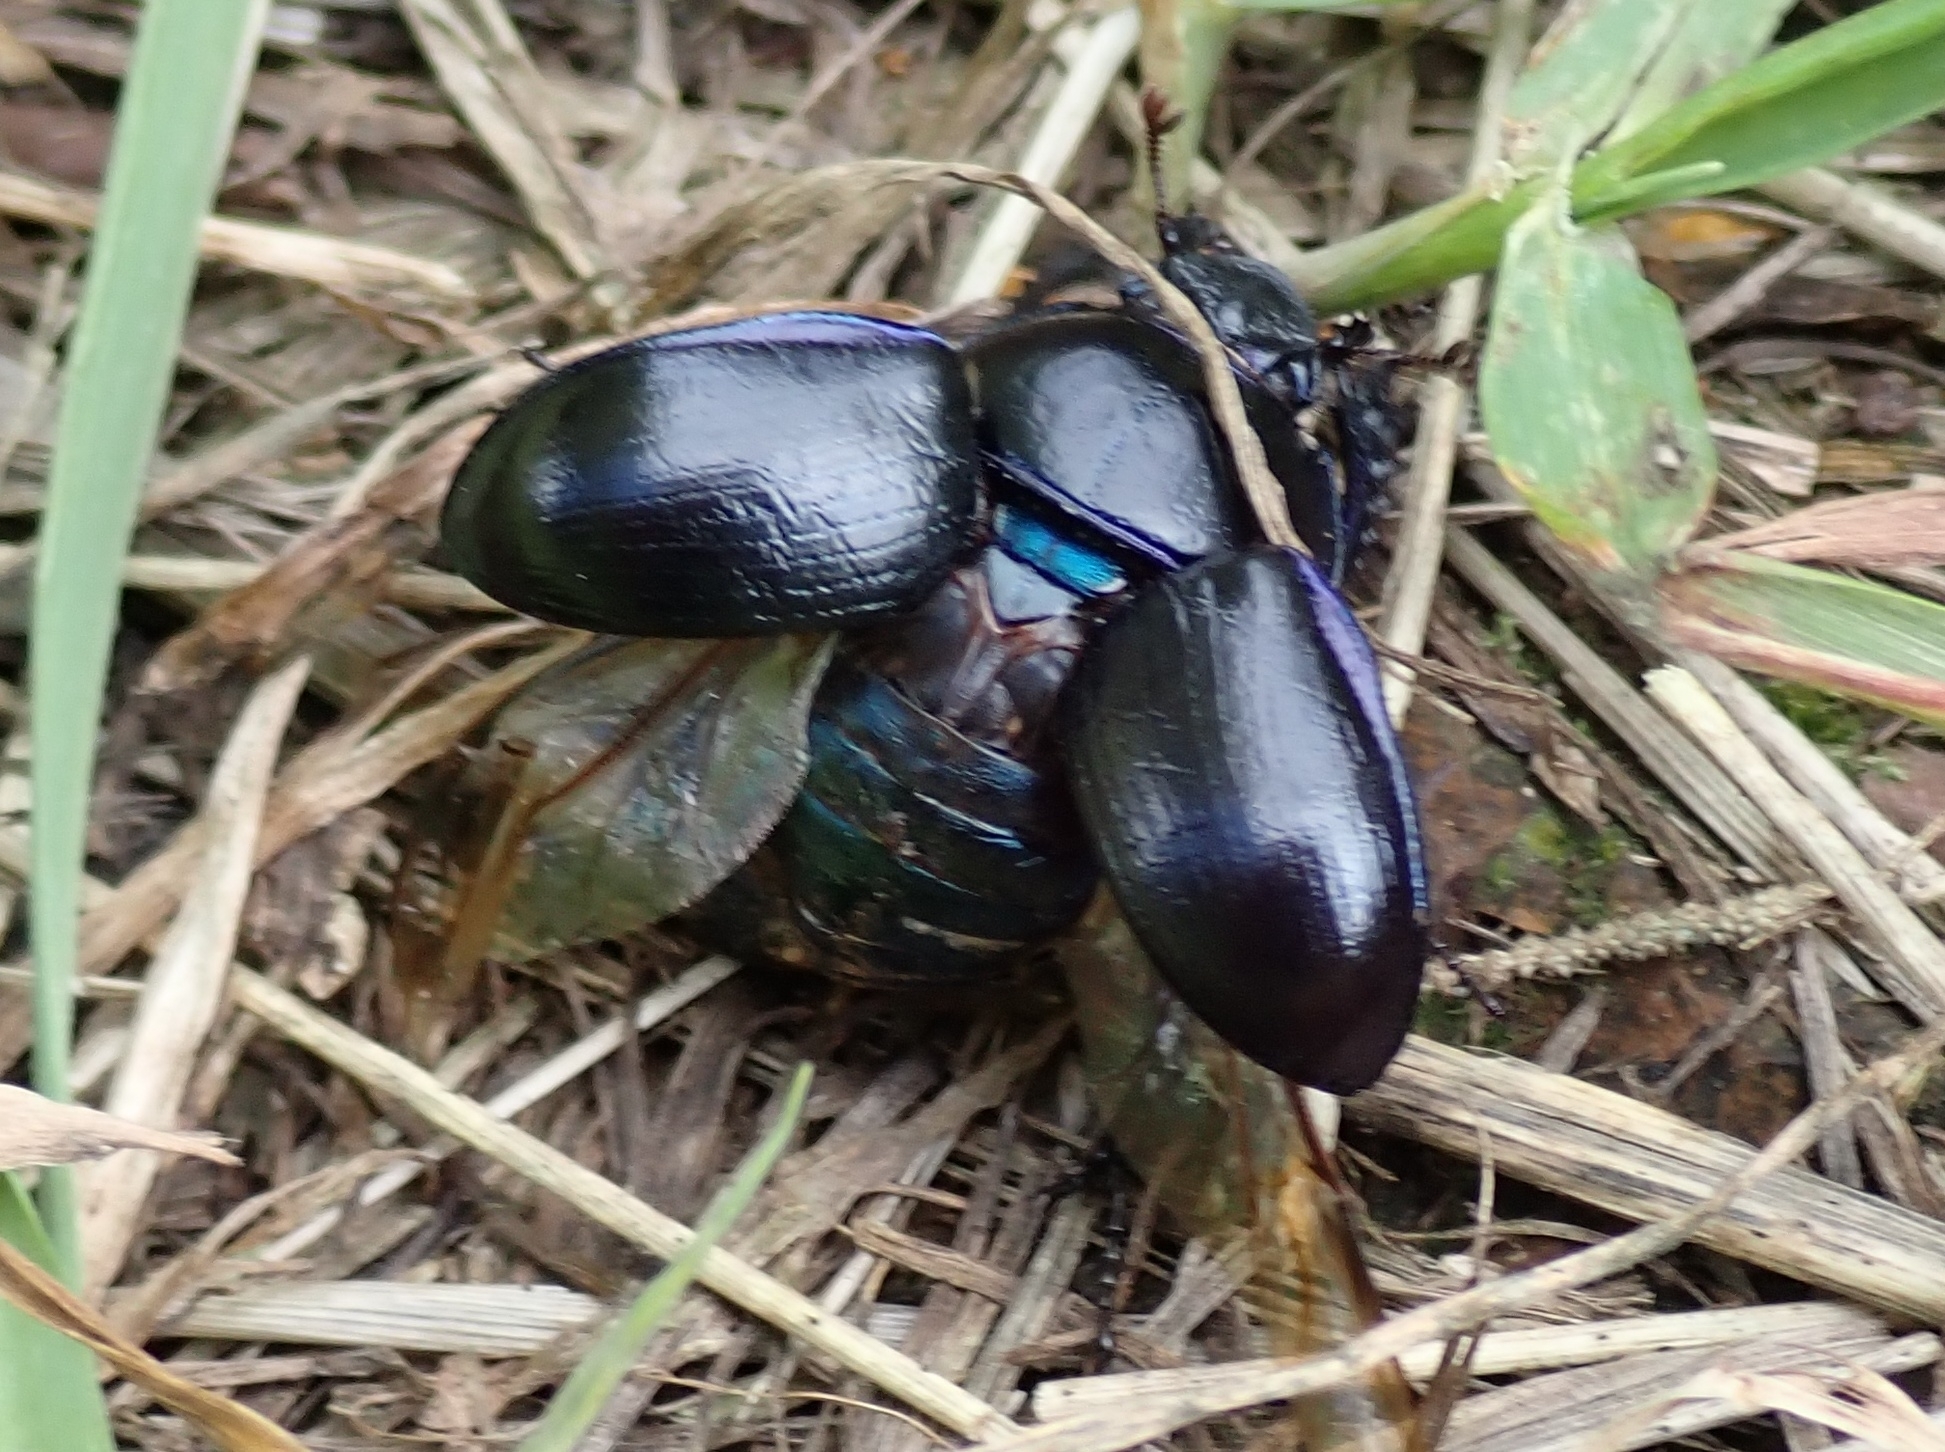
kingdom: Animalia
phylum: Arthropoda
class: Insecta
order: Coleoptera
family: Geotrupidae
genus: Anoplotrupes
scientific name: Anoplotrupes stercorosus
